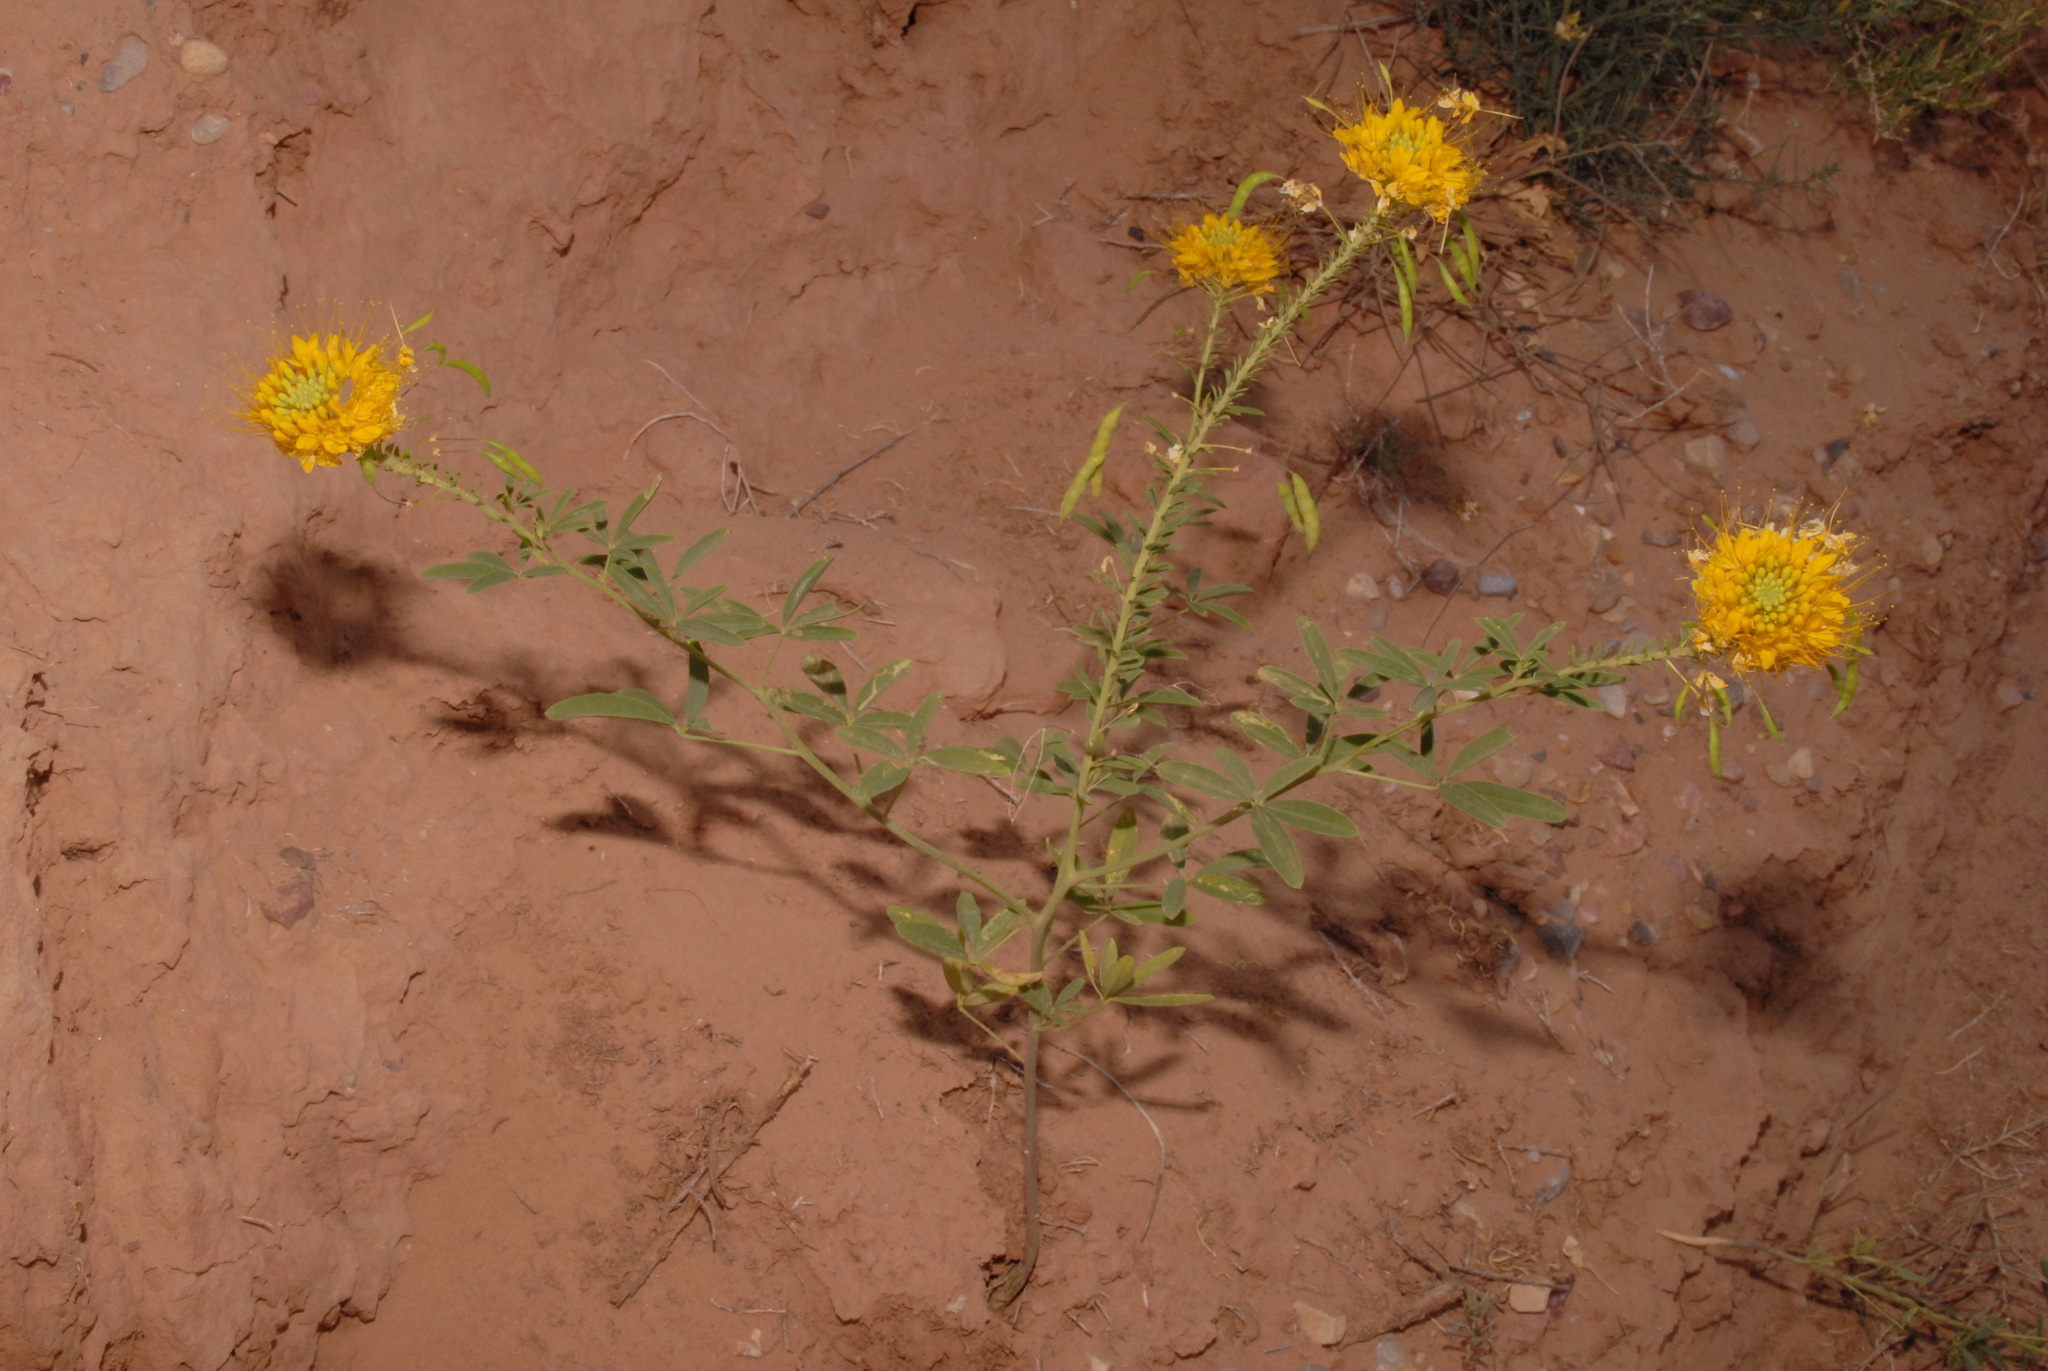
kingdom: Plantae
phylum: Tracheophyta
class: Magnoliopsida
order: Brassicales
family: Cleomaceae
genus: Cleomella
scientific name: Cleomella lutea
